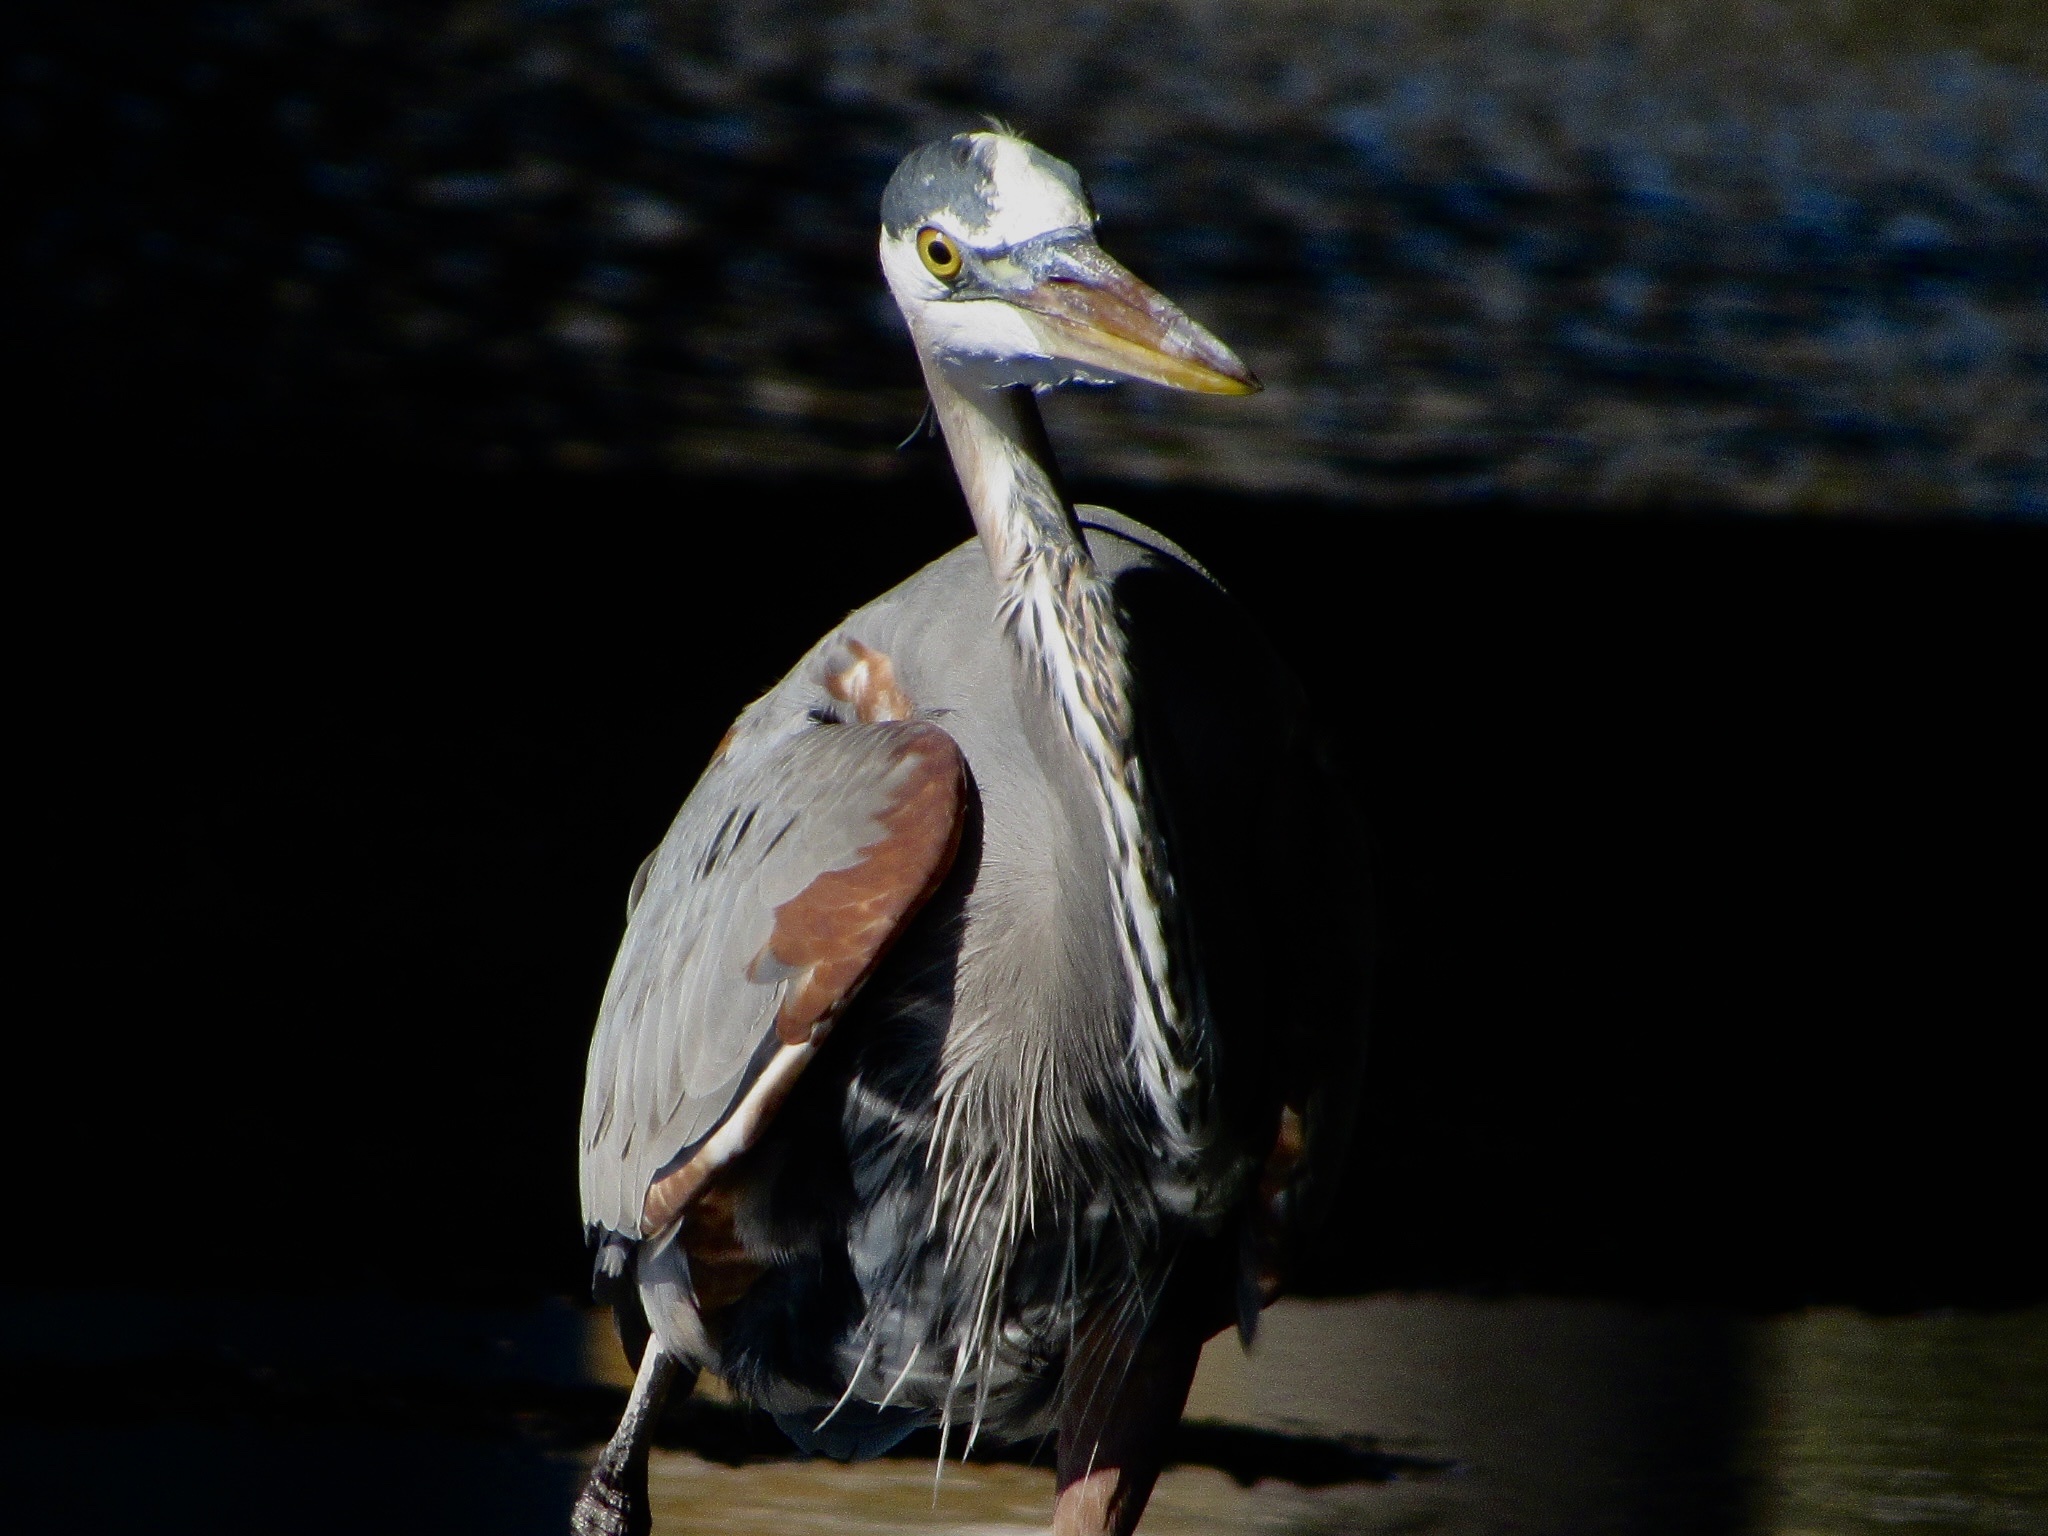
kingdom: Animalia
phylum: Chordata
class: Aves
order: Pelecaniformes
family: Ardeidae
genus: Ardea
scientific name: Ardea herodias
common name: Great blue heron
